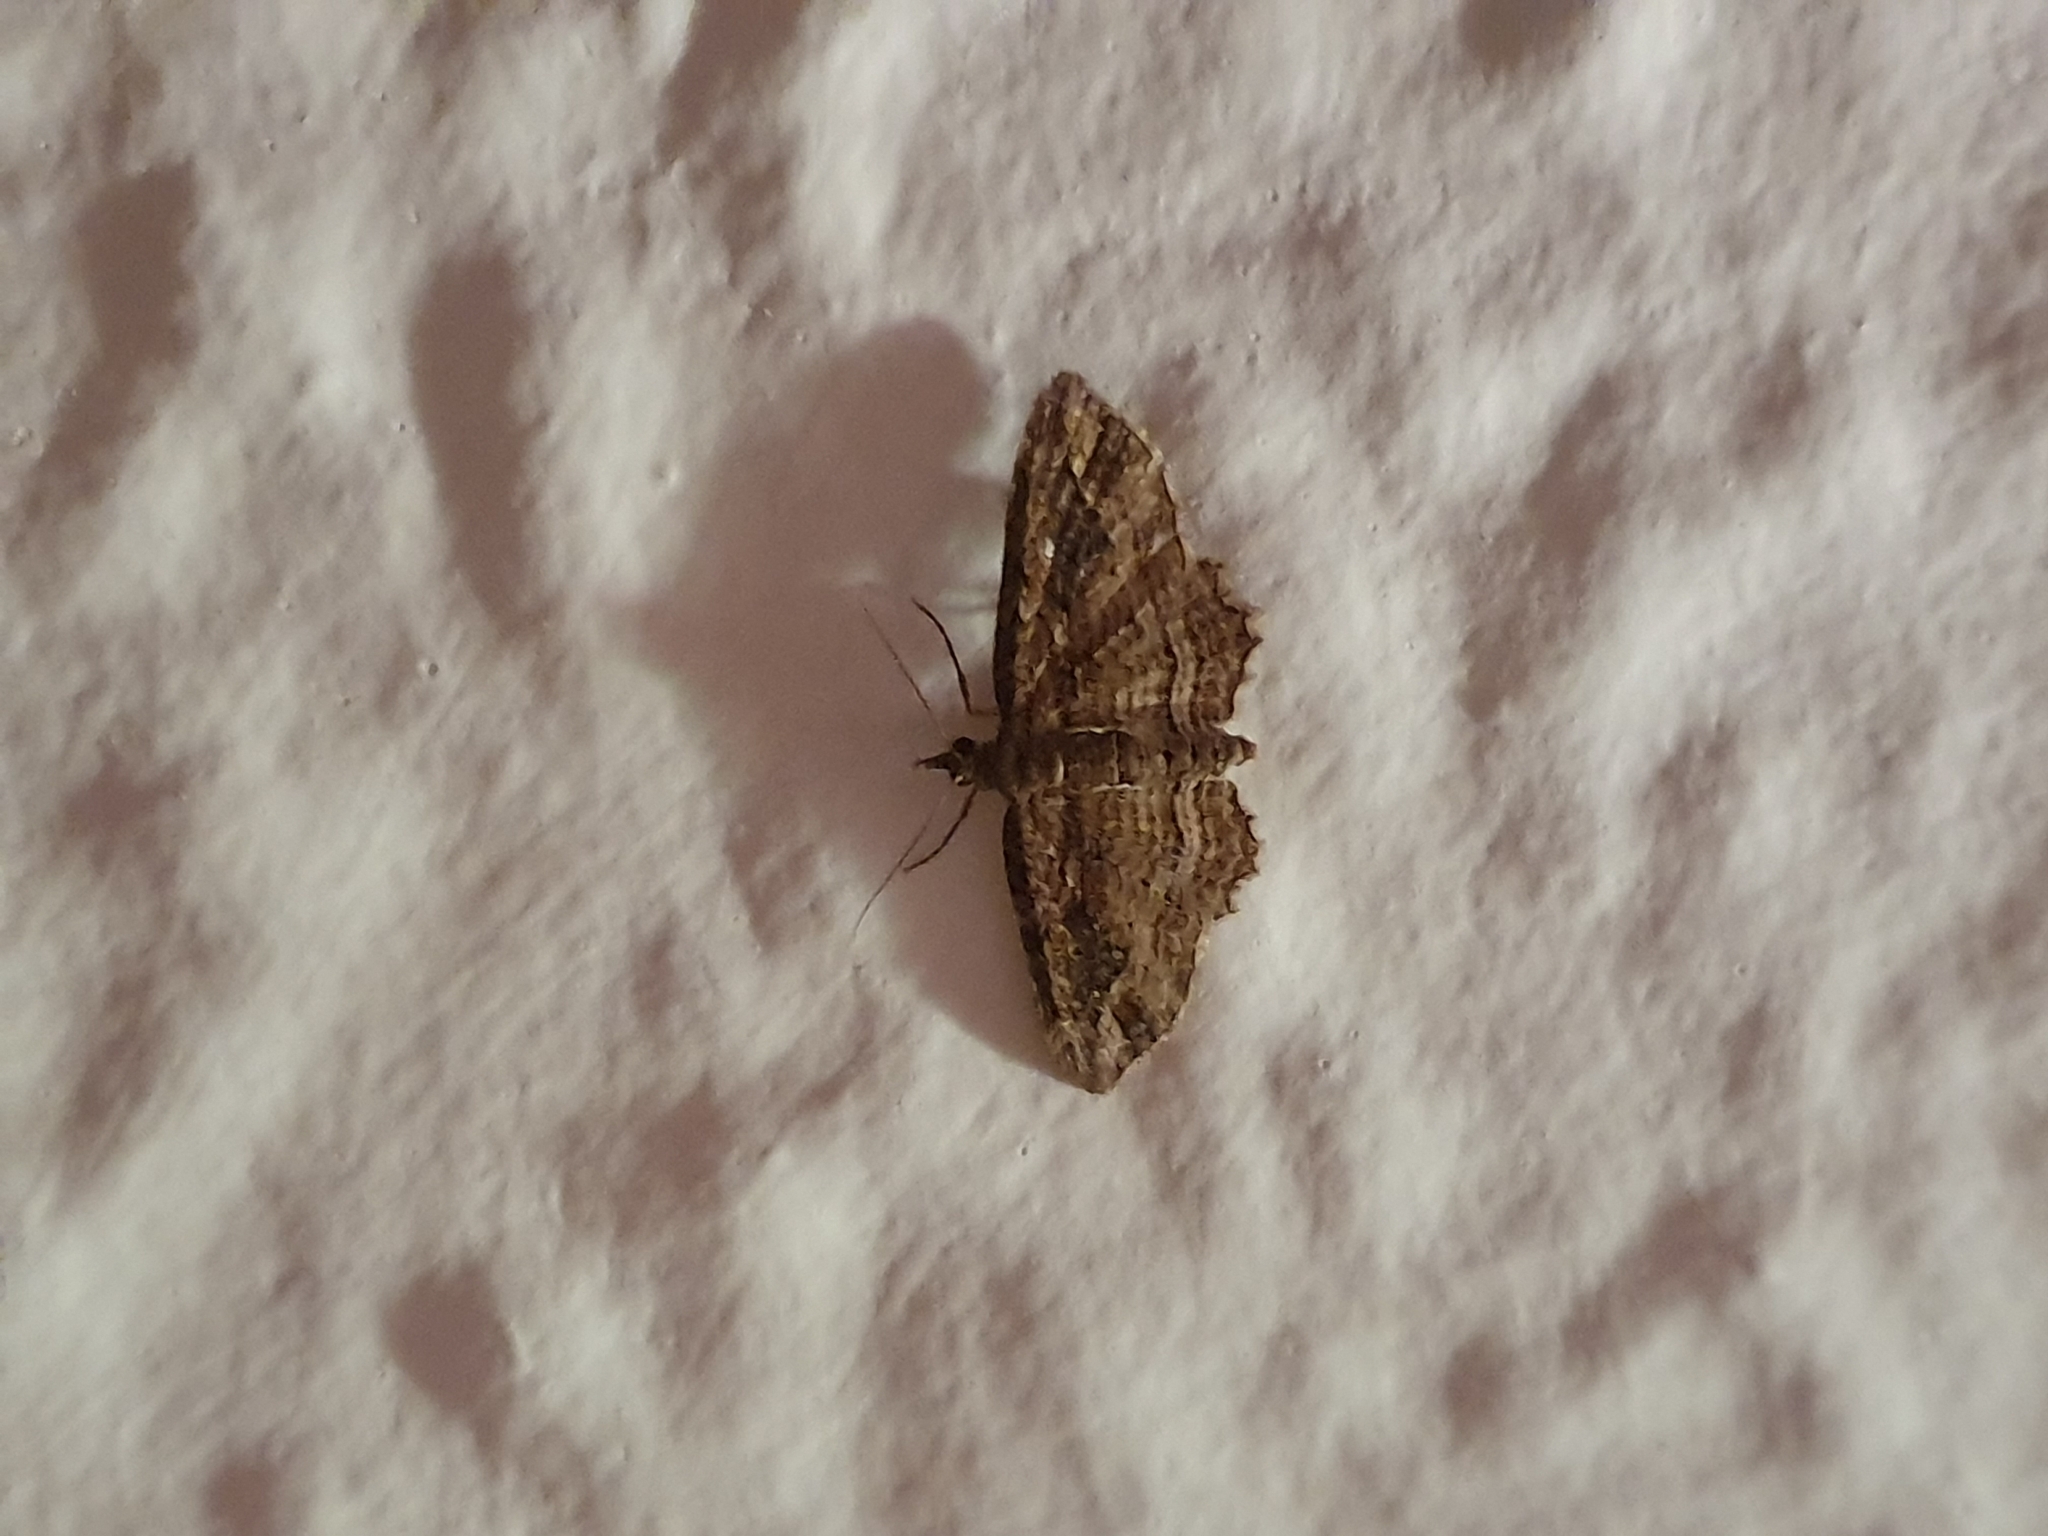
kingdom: Animalia
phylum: Arthropoda
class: Insecta
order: Lepidoptera
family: Geometridae
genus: Chloroclystis
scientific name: Chloroclystis filata
